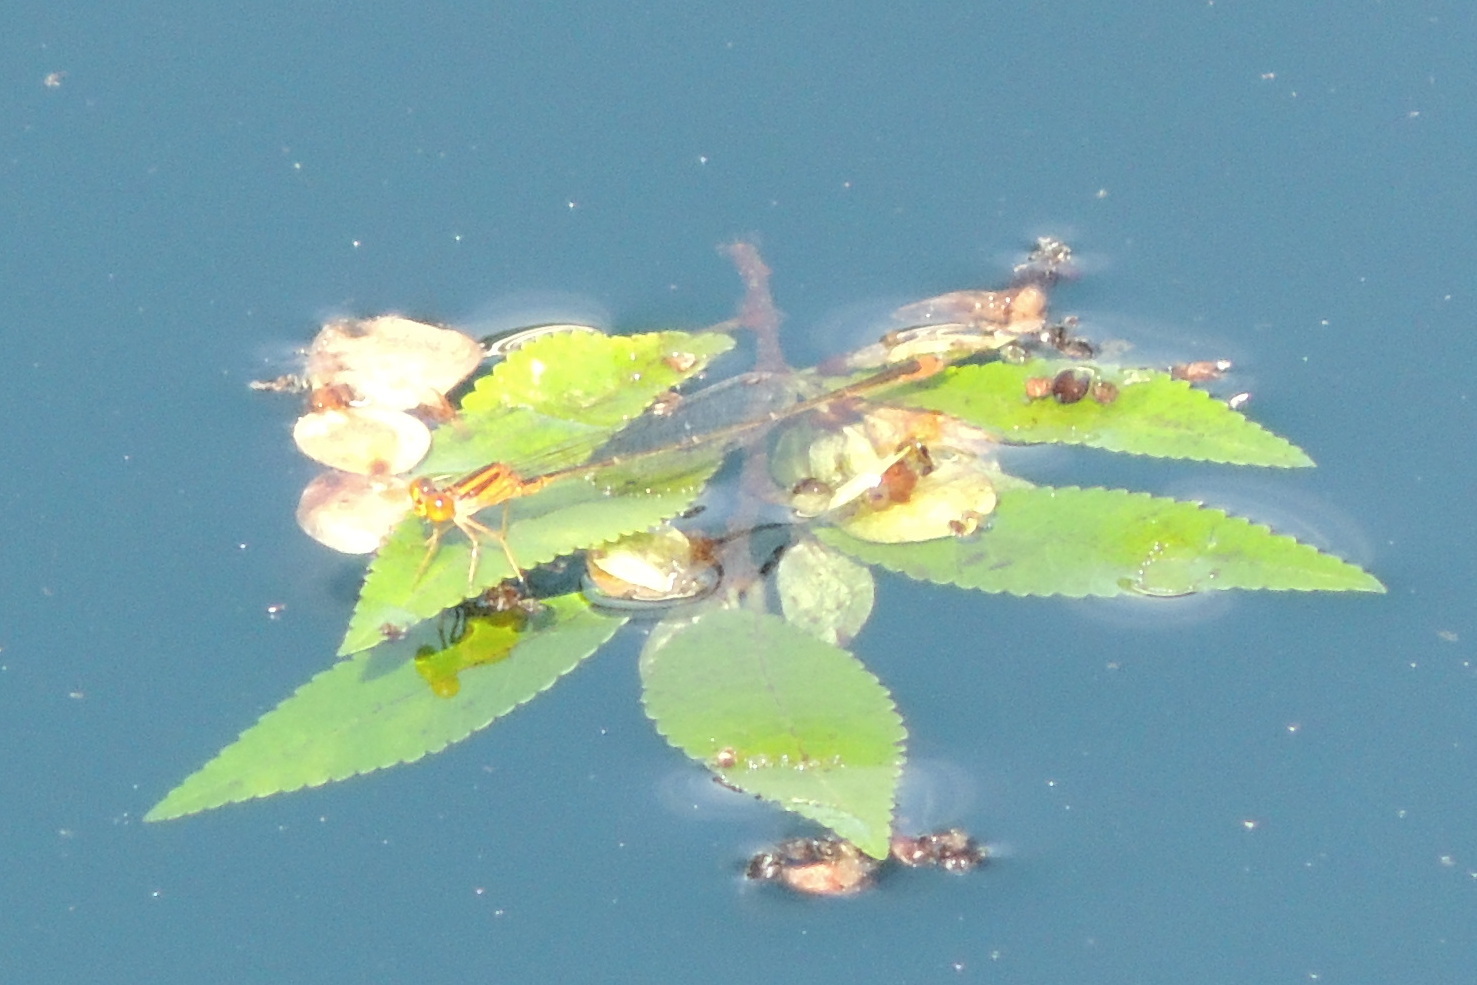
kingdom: Animalia
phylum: Arthropoda
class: Insecta
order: Odonata
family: Coenagrionidae
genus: Enallagma
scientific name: Enallagma signatum
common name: Orange bluet
